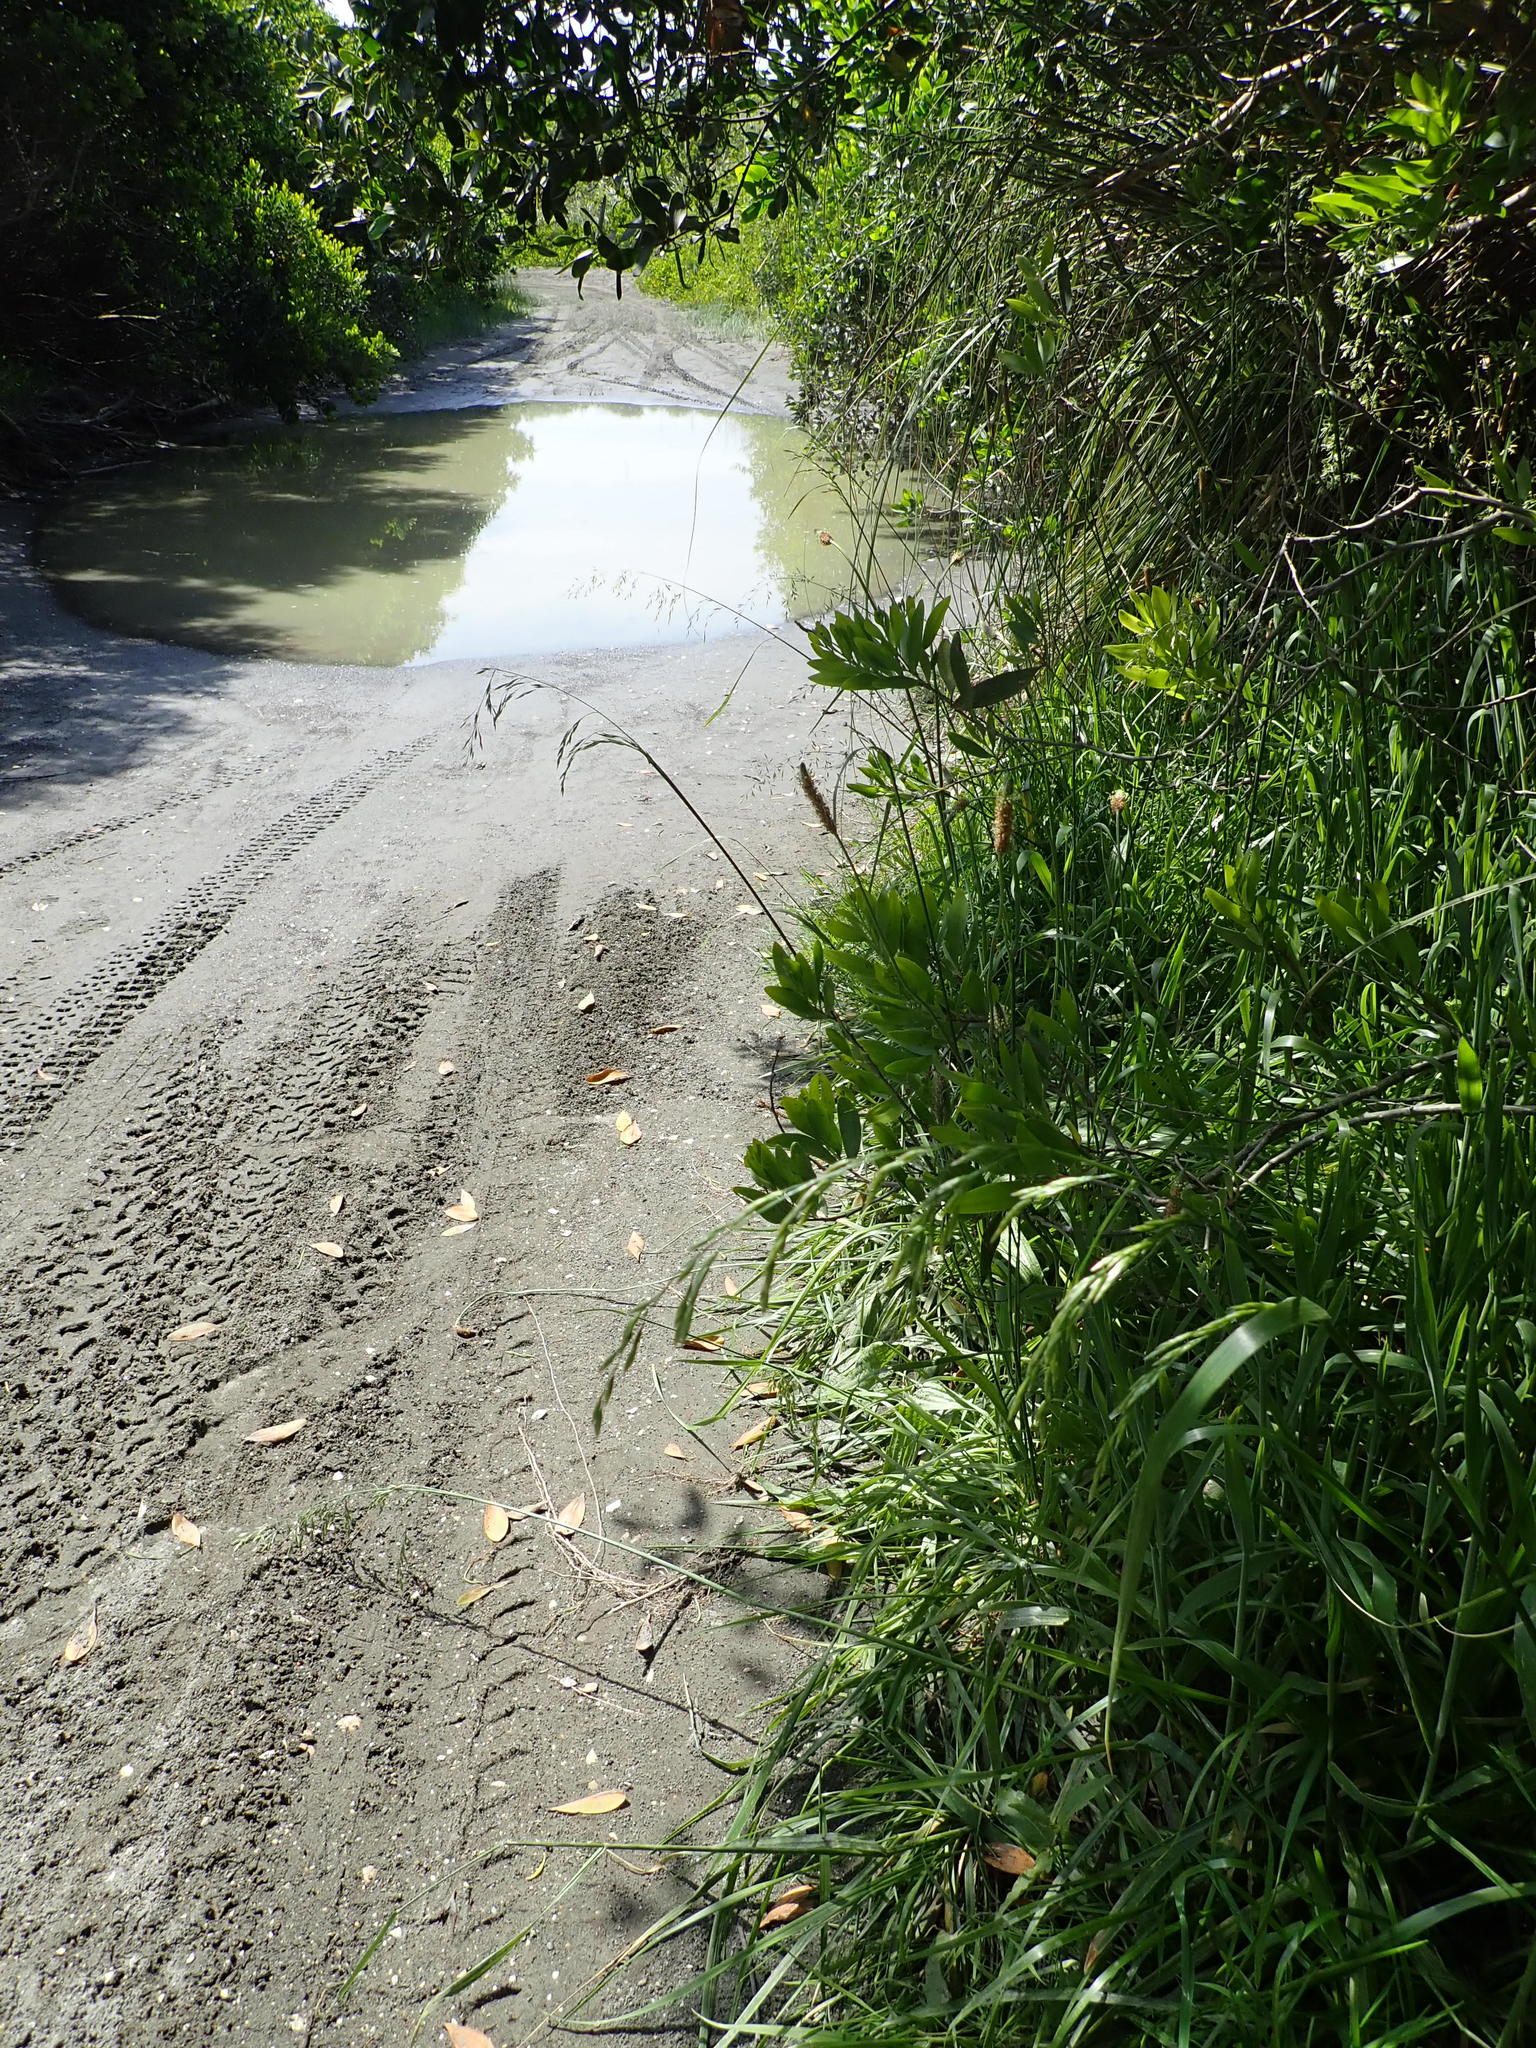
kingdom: Plantae
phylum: Tracheophyta
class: Magnoliopsida
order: Lamiales
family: Plantaginaceae
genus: Plantago
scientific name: Plantago lanceolata
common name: Ribwort plantain
